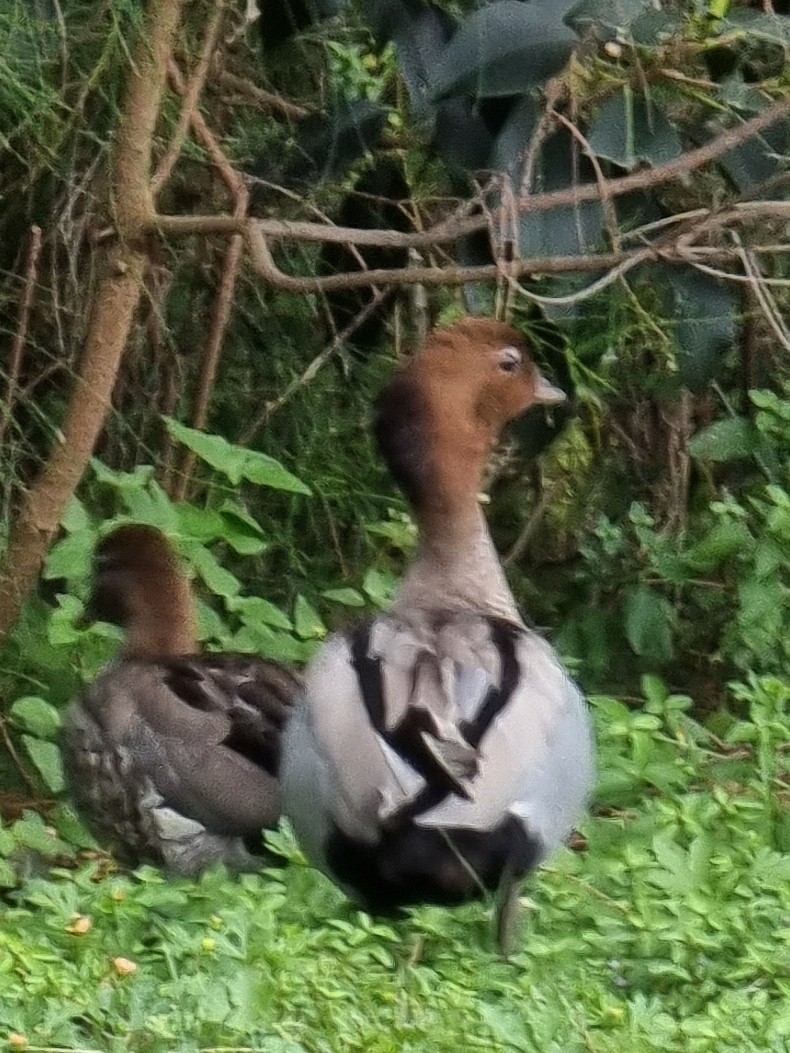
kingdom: Animalia
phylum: Chordata
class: Aves
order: Anseriformes
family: Anatidae
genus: Chenonetta
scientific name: Chenonetta jubata
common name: Maned duck
